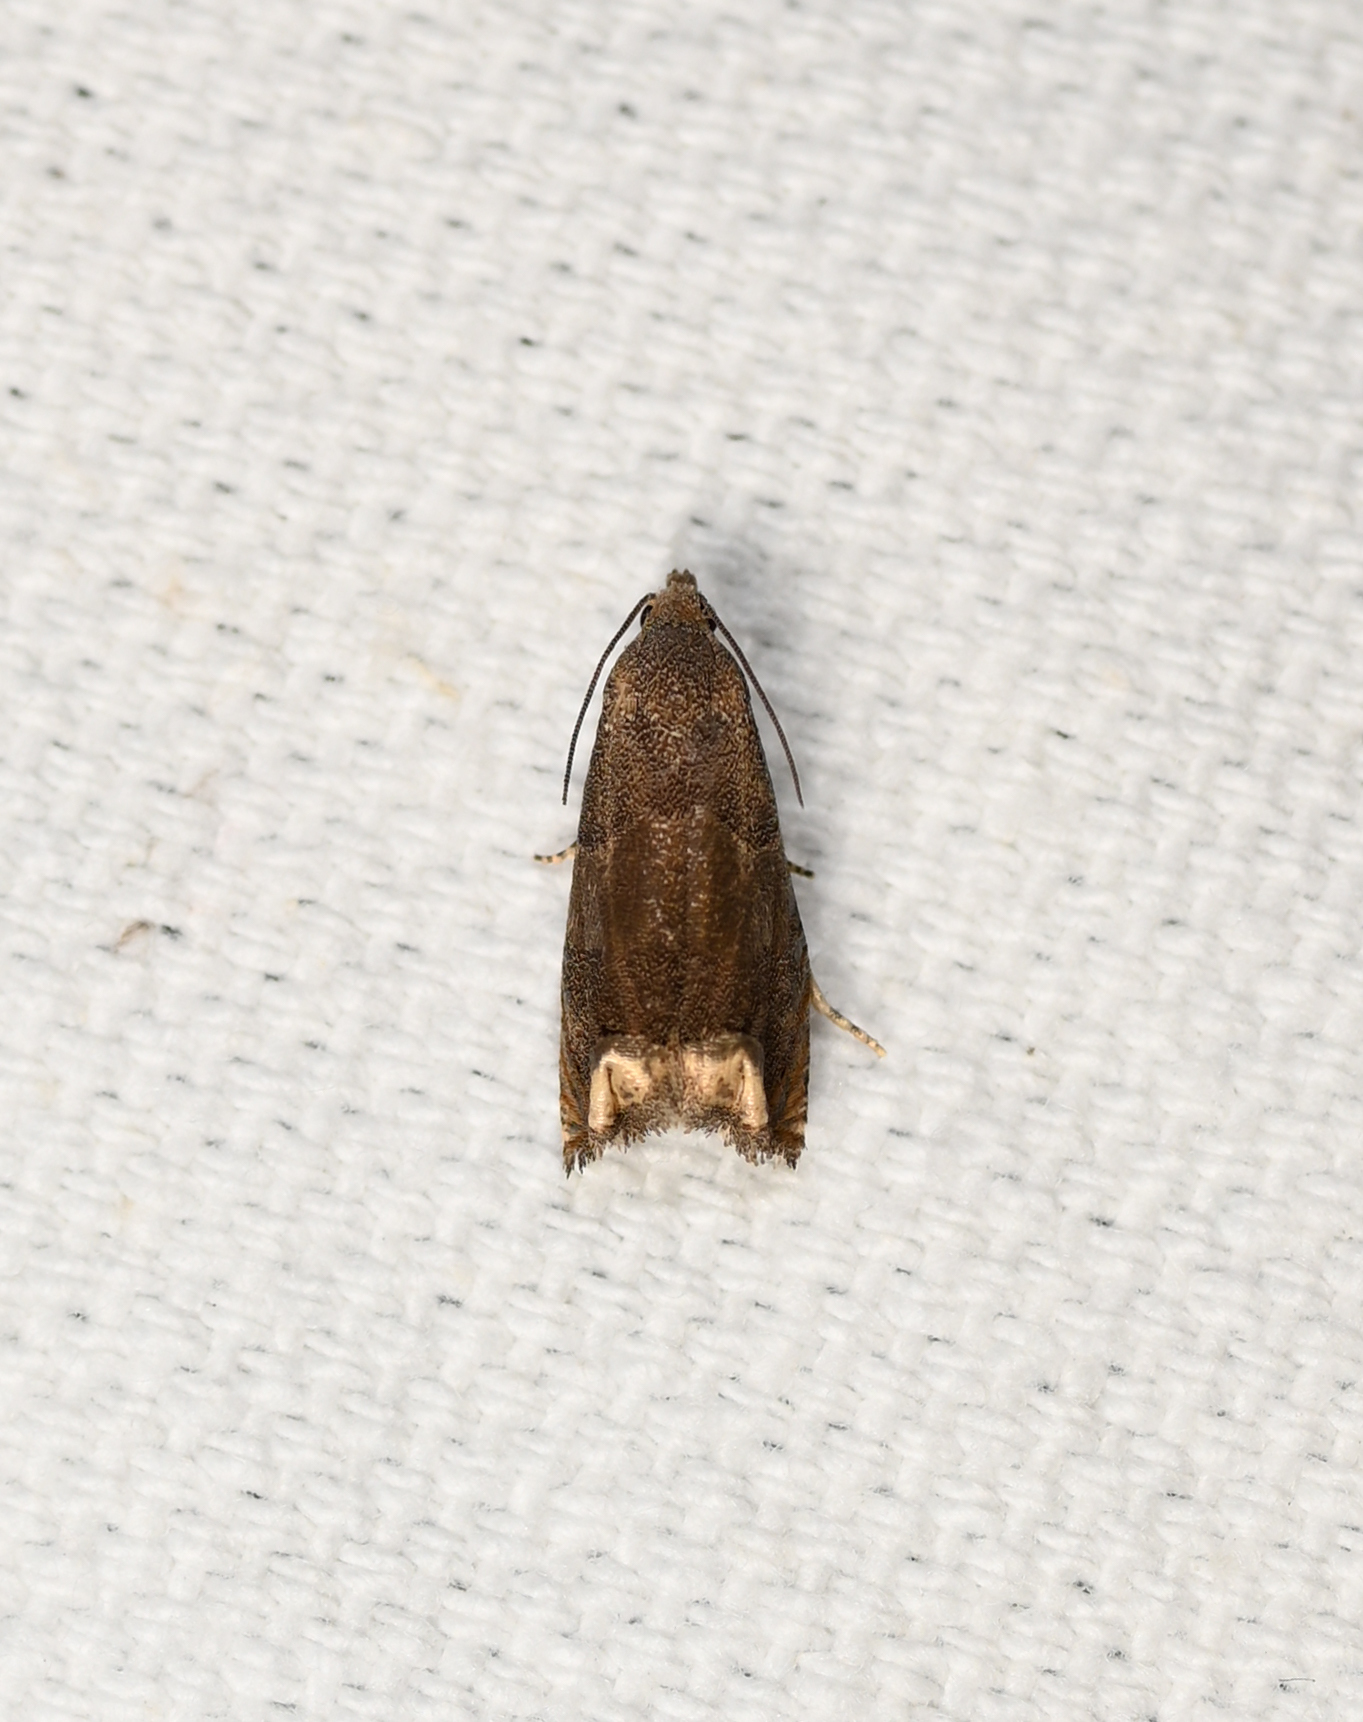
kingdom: Animalia
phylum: Arthropoda
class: Insecta
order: Lepidoptera
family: Tortricidae
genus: Epiblema
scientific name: Epiblema strenuana
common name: Ragweed borer moth
